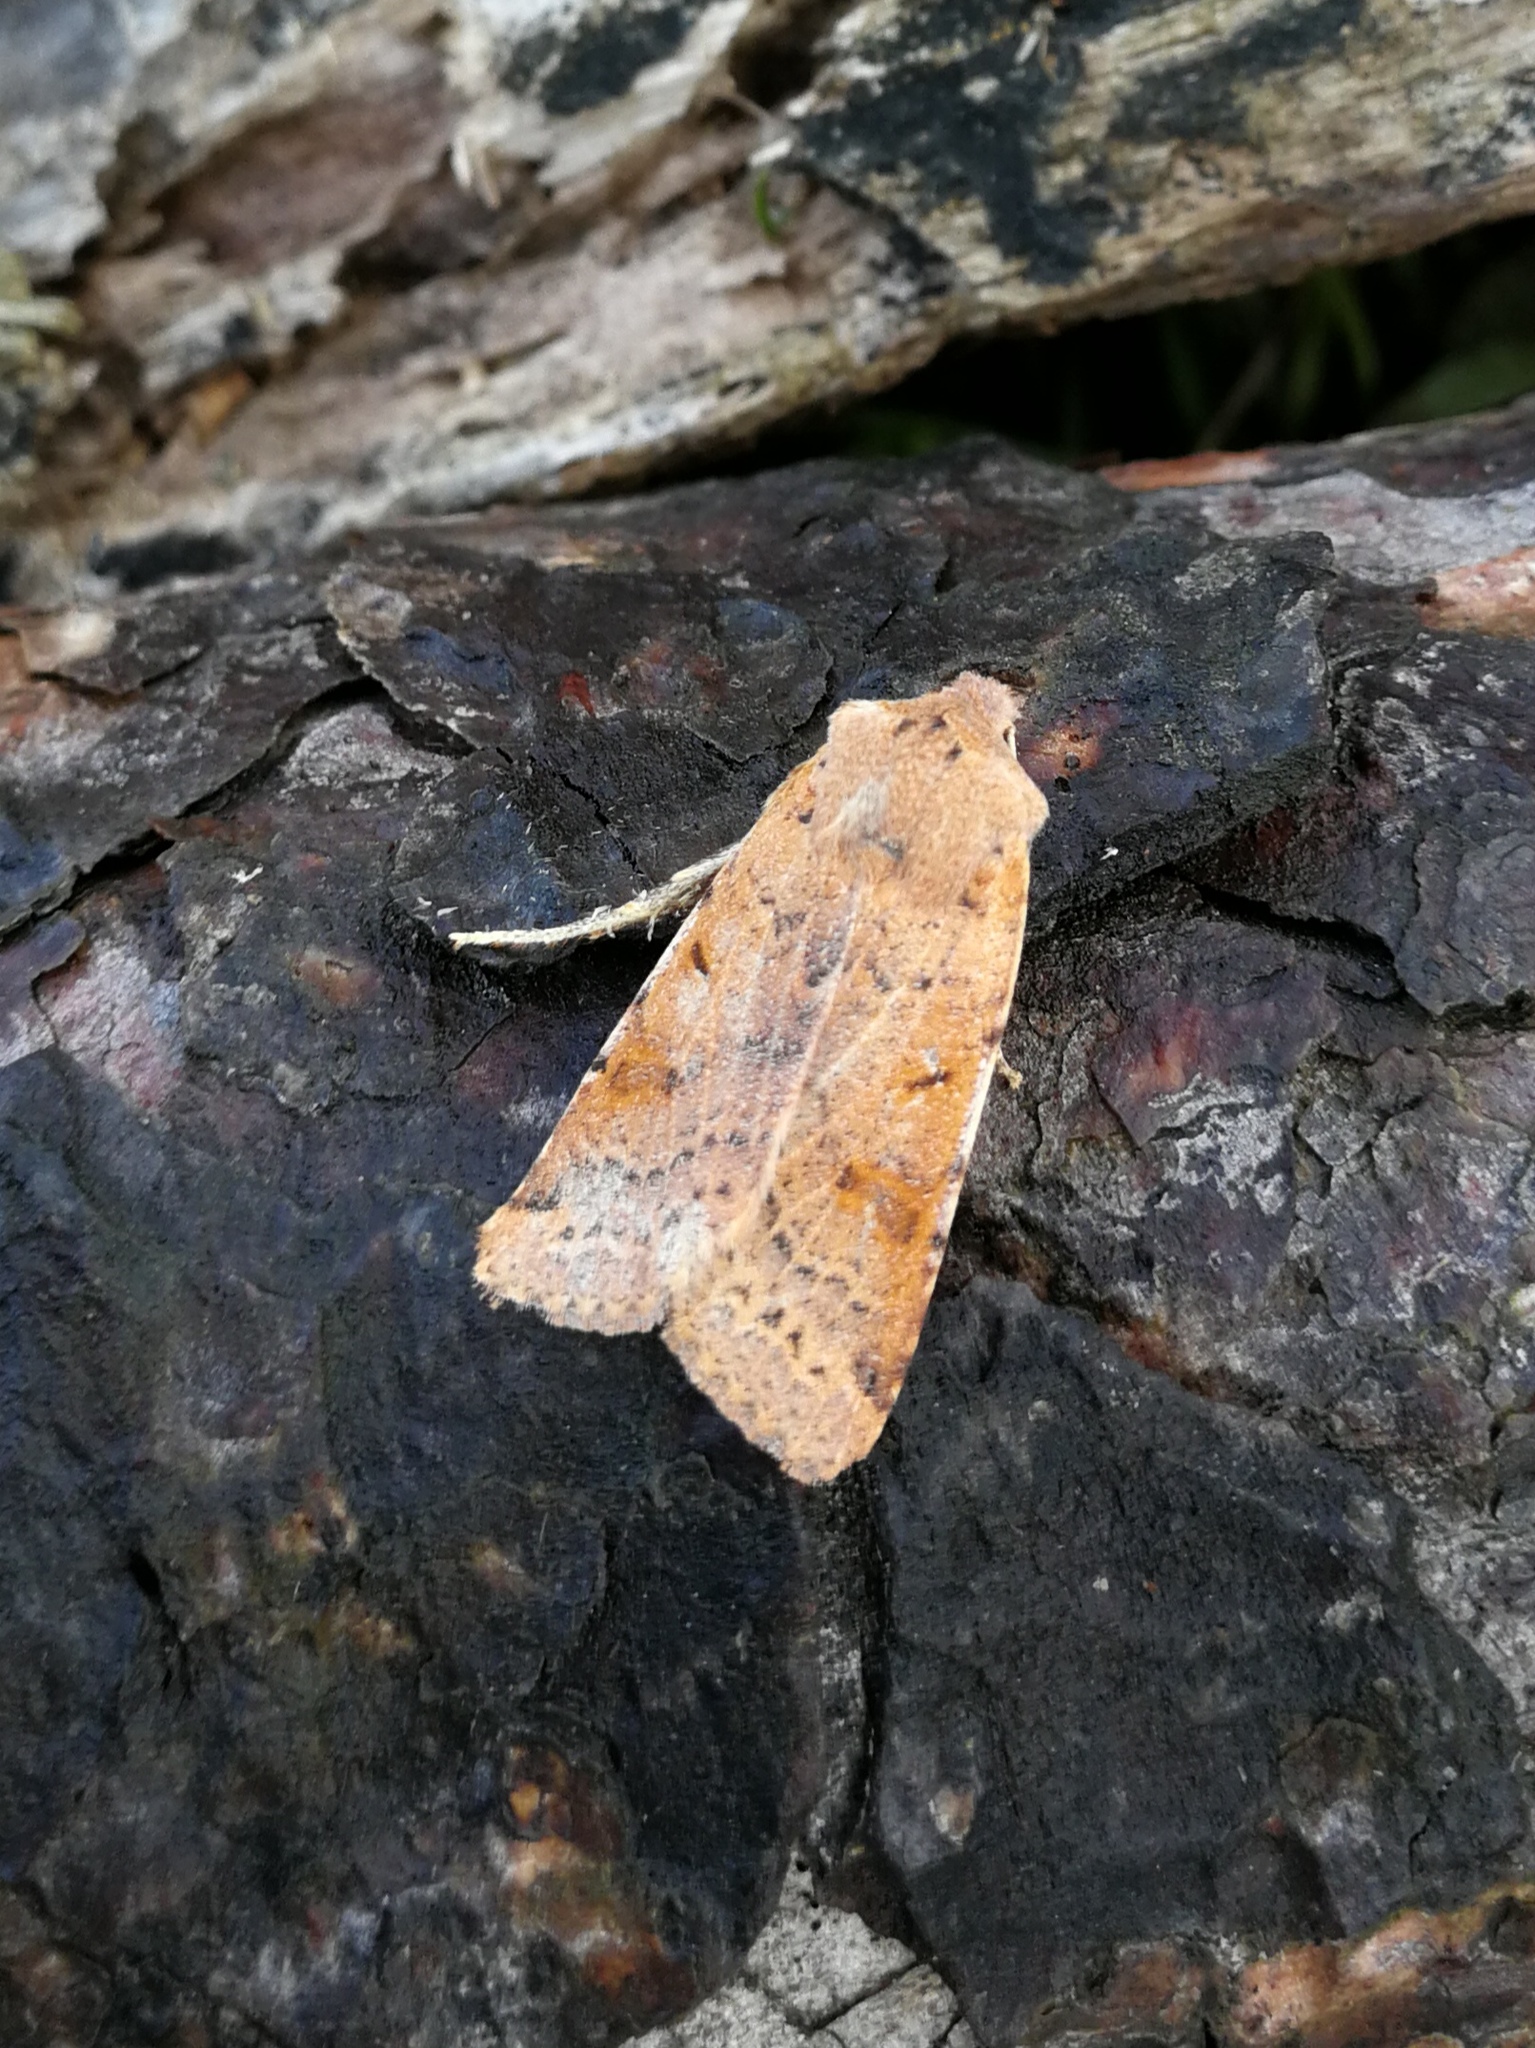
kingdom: Animalia
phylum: Arthropoda
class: Insecta
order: Lepidoptera
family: Noctuidae
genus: Agrochola
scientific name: Agrochola lychnidis
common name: Beaded chestnut
